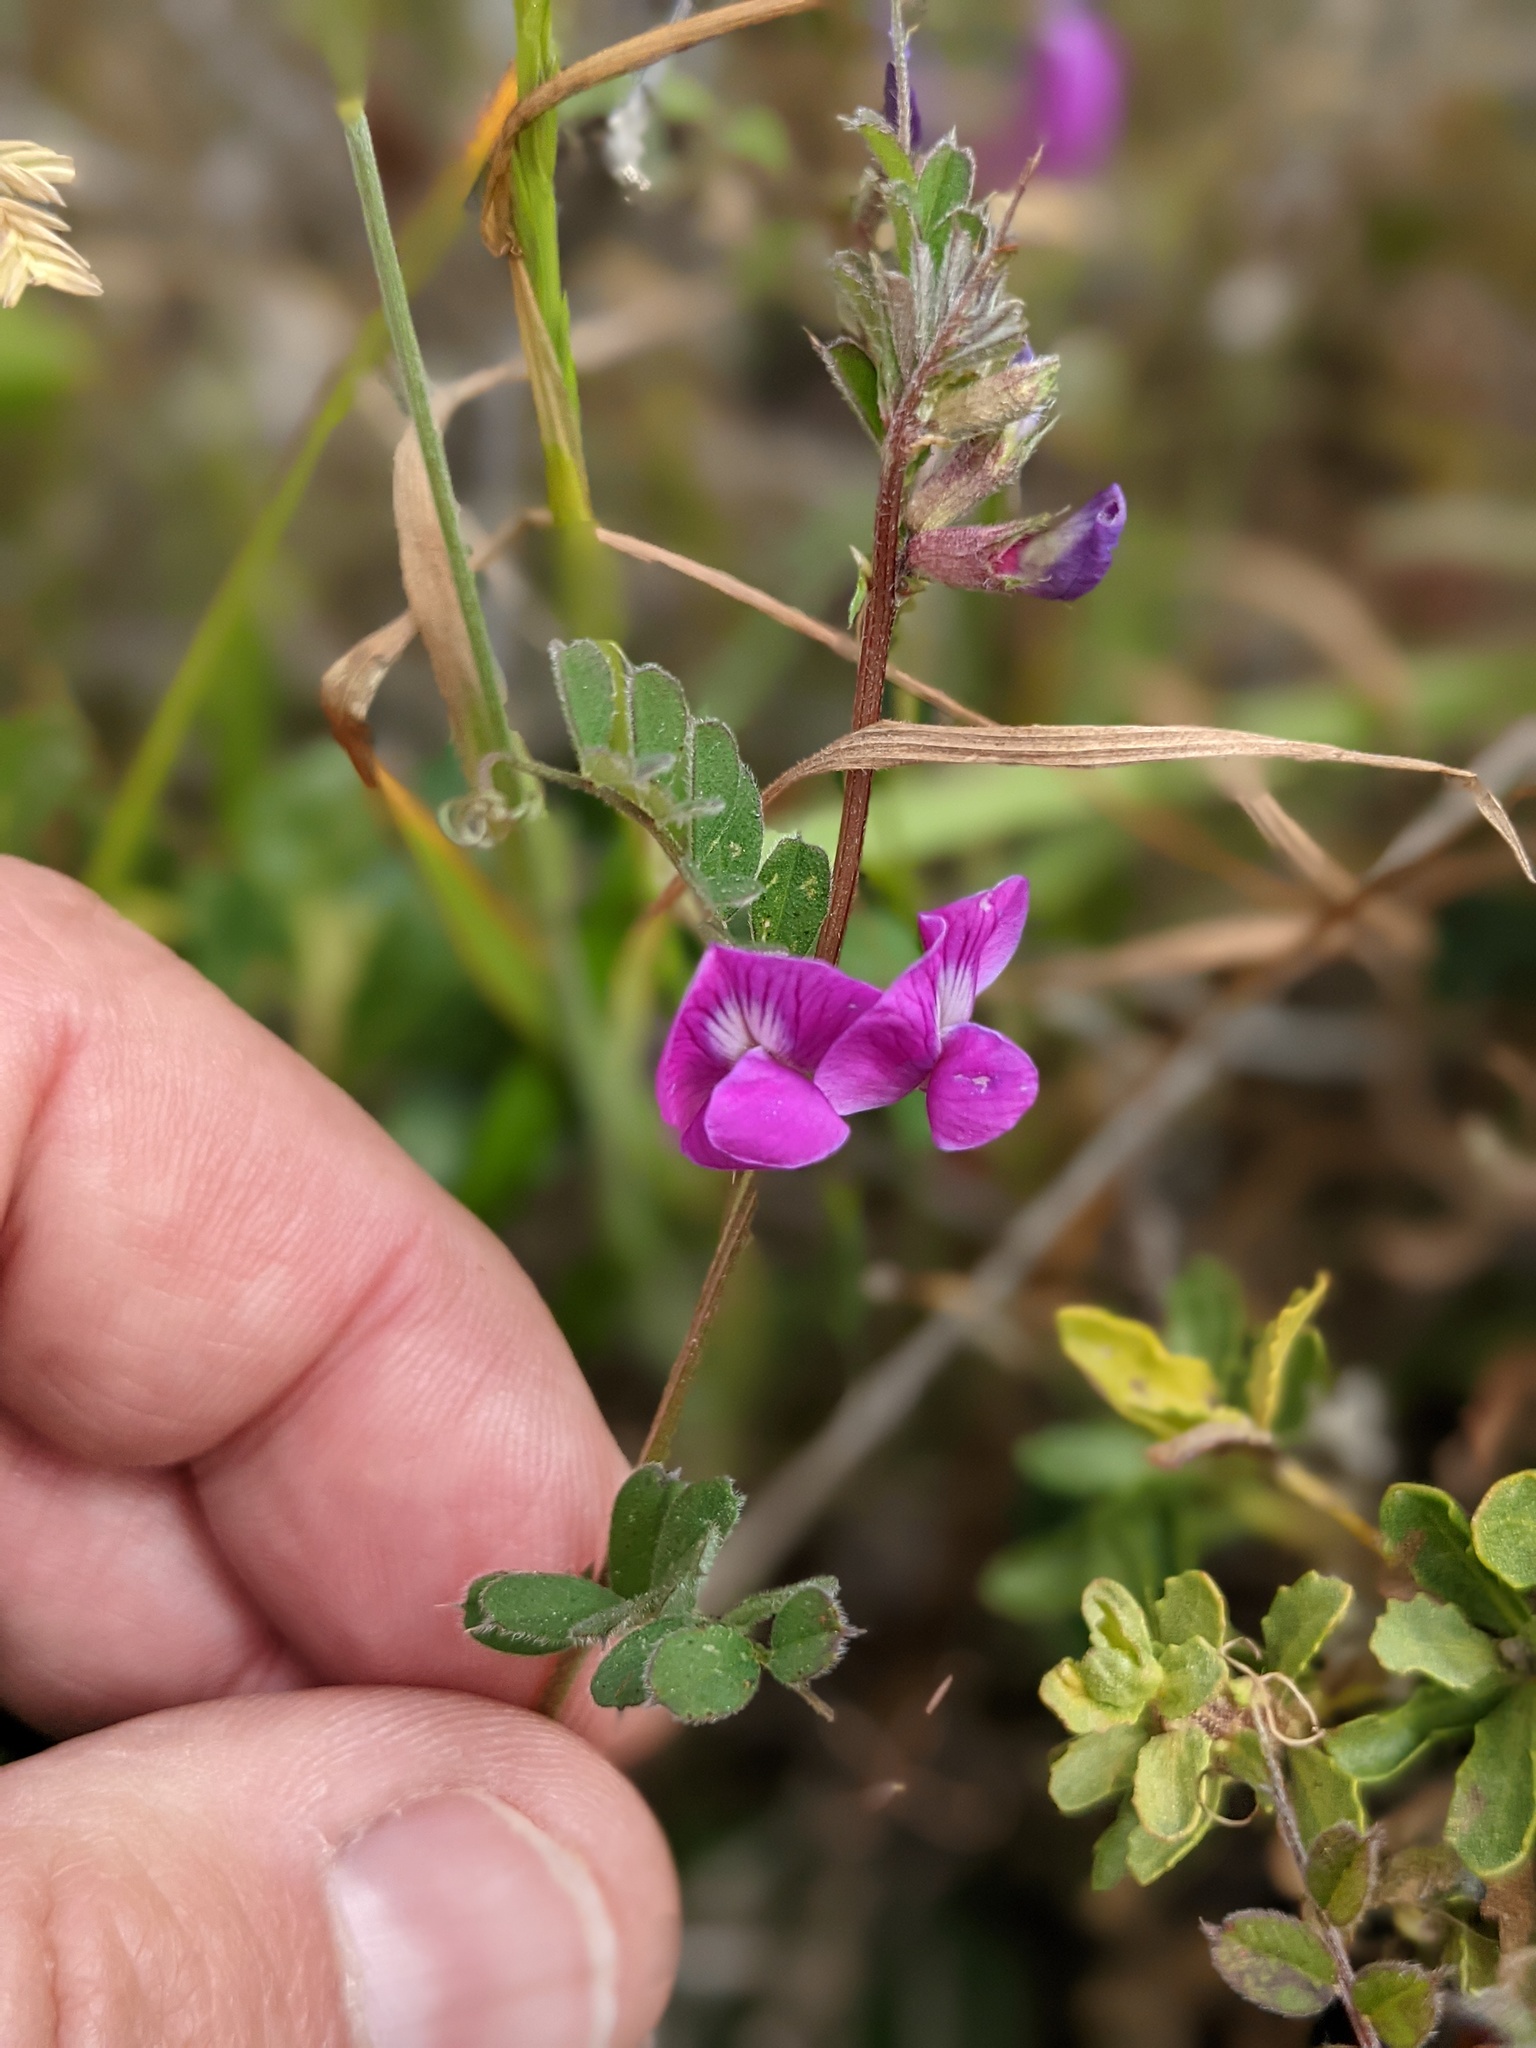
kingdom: Plantae
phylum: Tracheophyta
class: Magnoliopsida
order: Fabales
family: Fabaceae
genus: Vicia
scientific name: Vicia sativa
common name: Garden vetch
